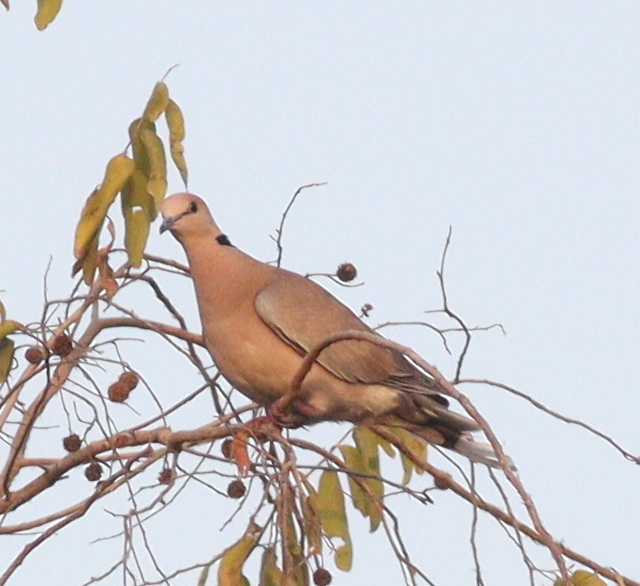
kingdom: Animalia
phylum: Chordata
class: Aves
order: Columbiformes
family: Columbidae
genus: Streptopelia
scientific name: Streptopelia vinacea
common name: Vinaceous dove
